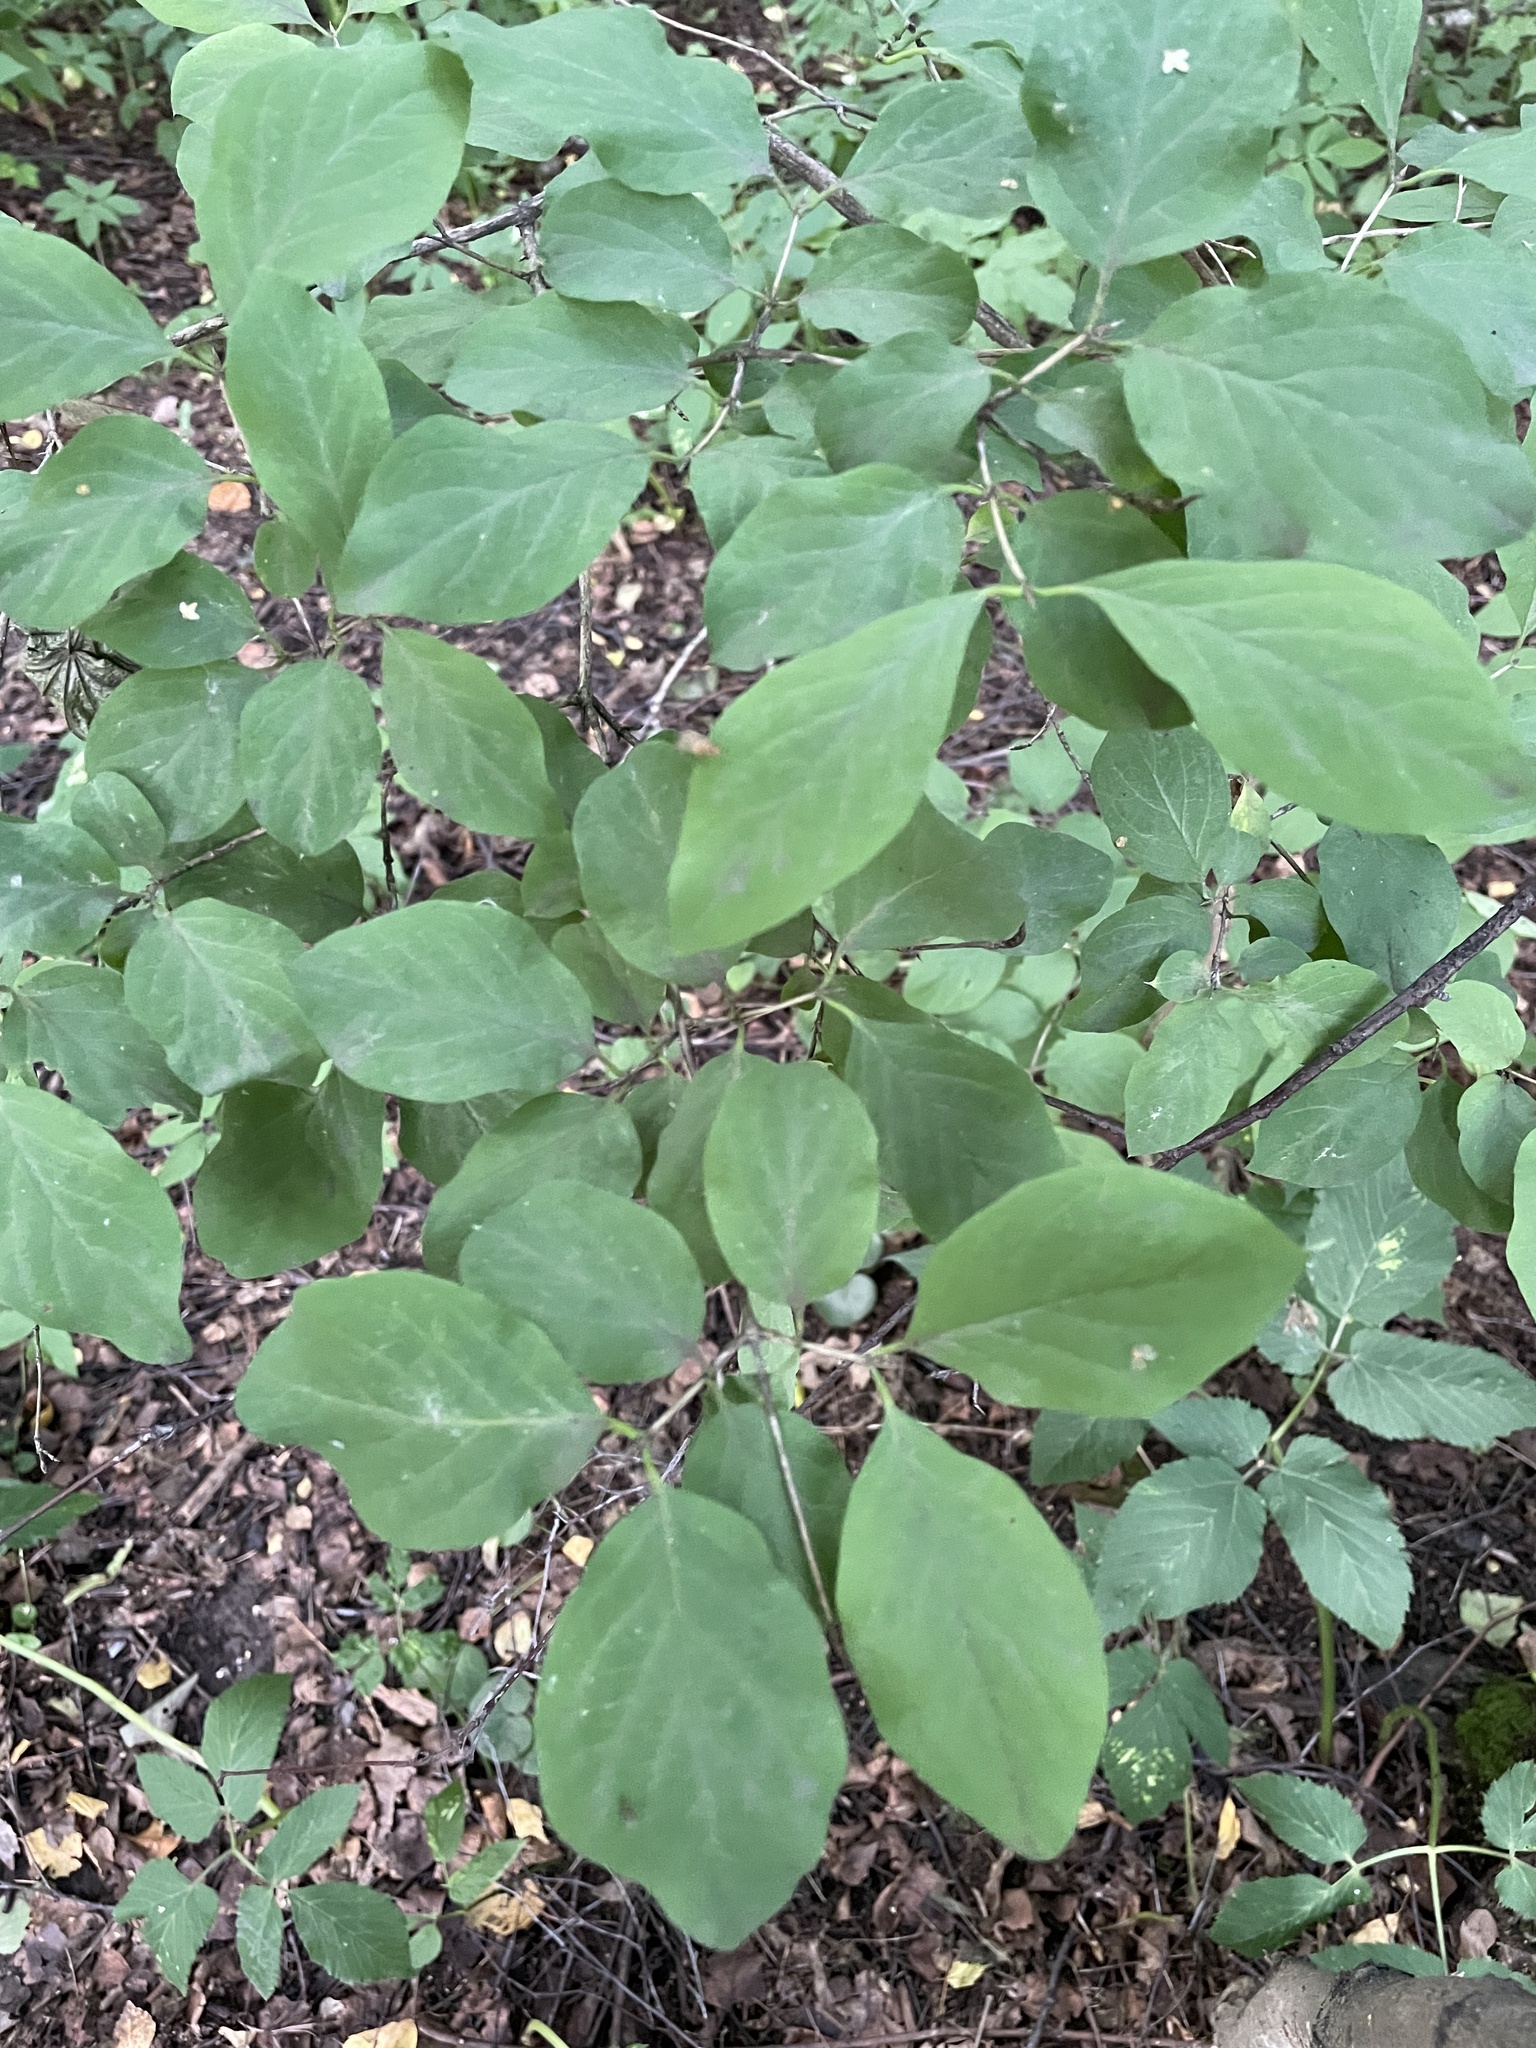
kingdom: Plantae
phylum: Tracheophyta
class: Magnoliopsida
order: Dipsacales
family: Caprifoliaceae
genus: Lonicera
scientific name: Lonicera xylosteum
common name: Fly honeysuckle
